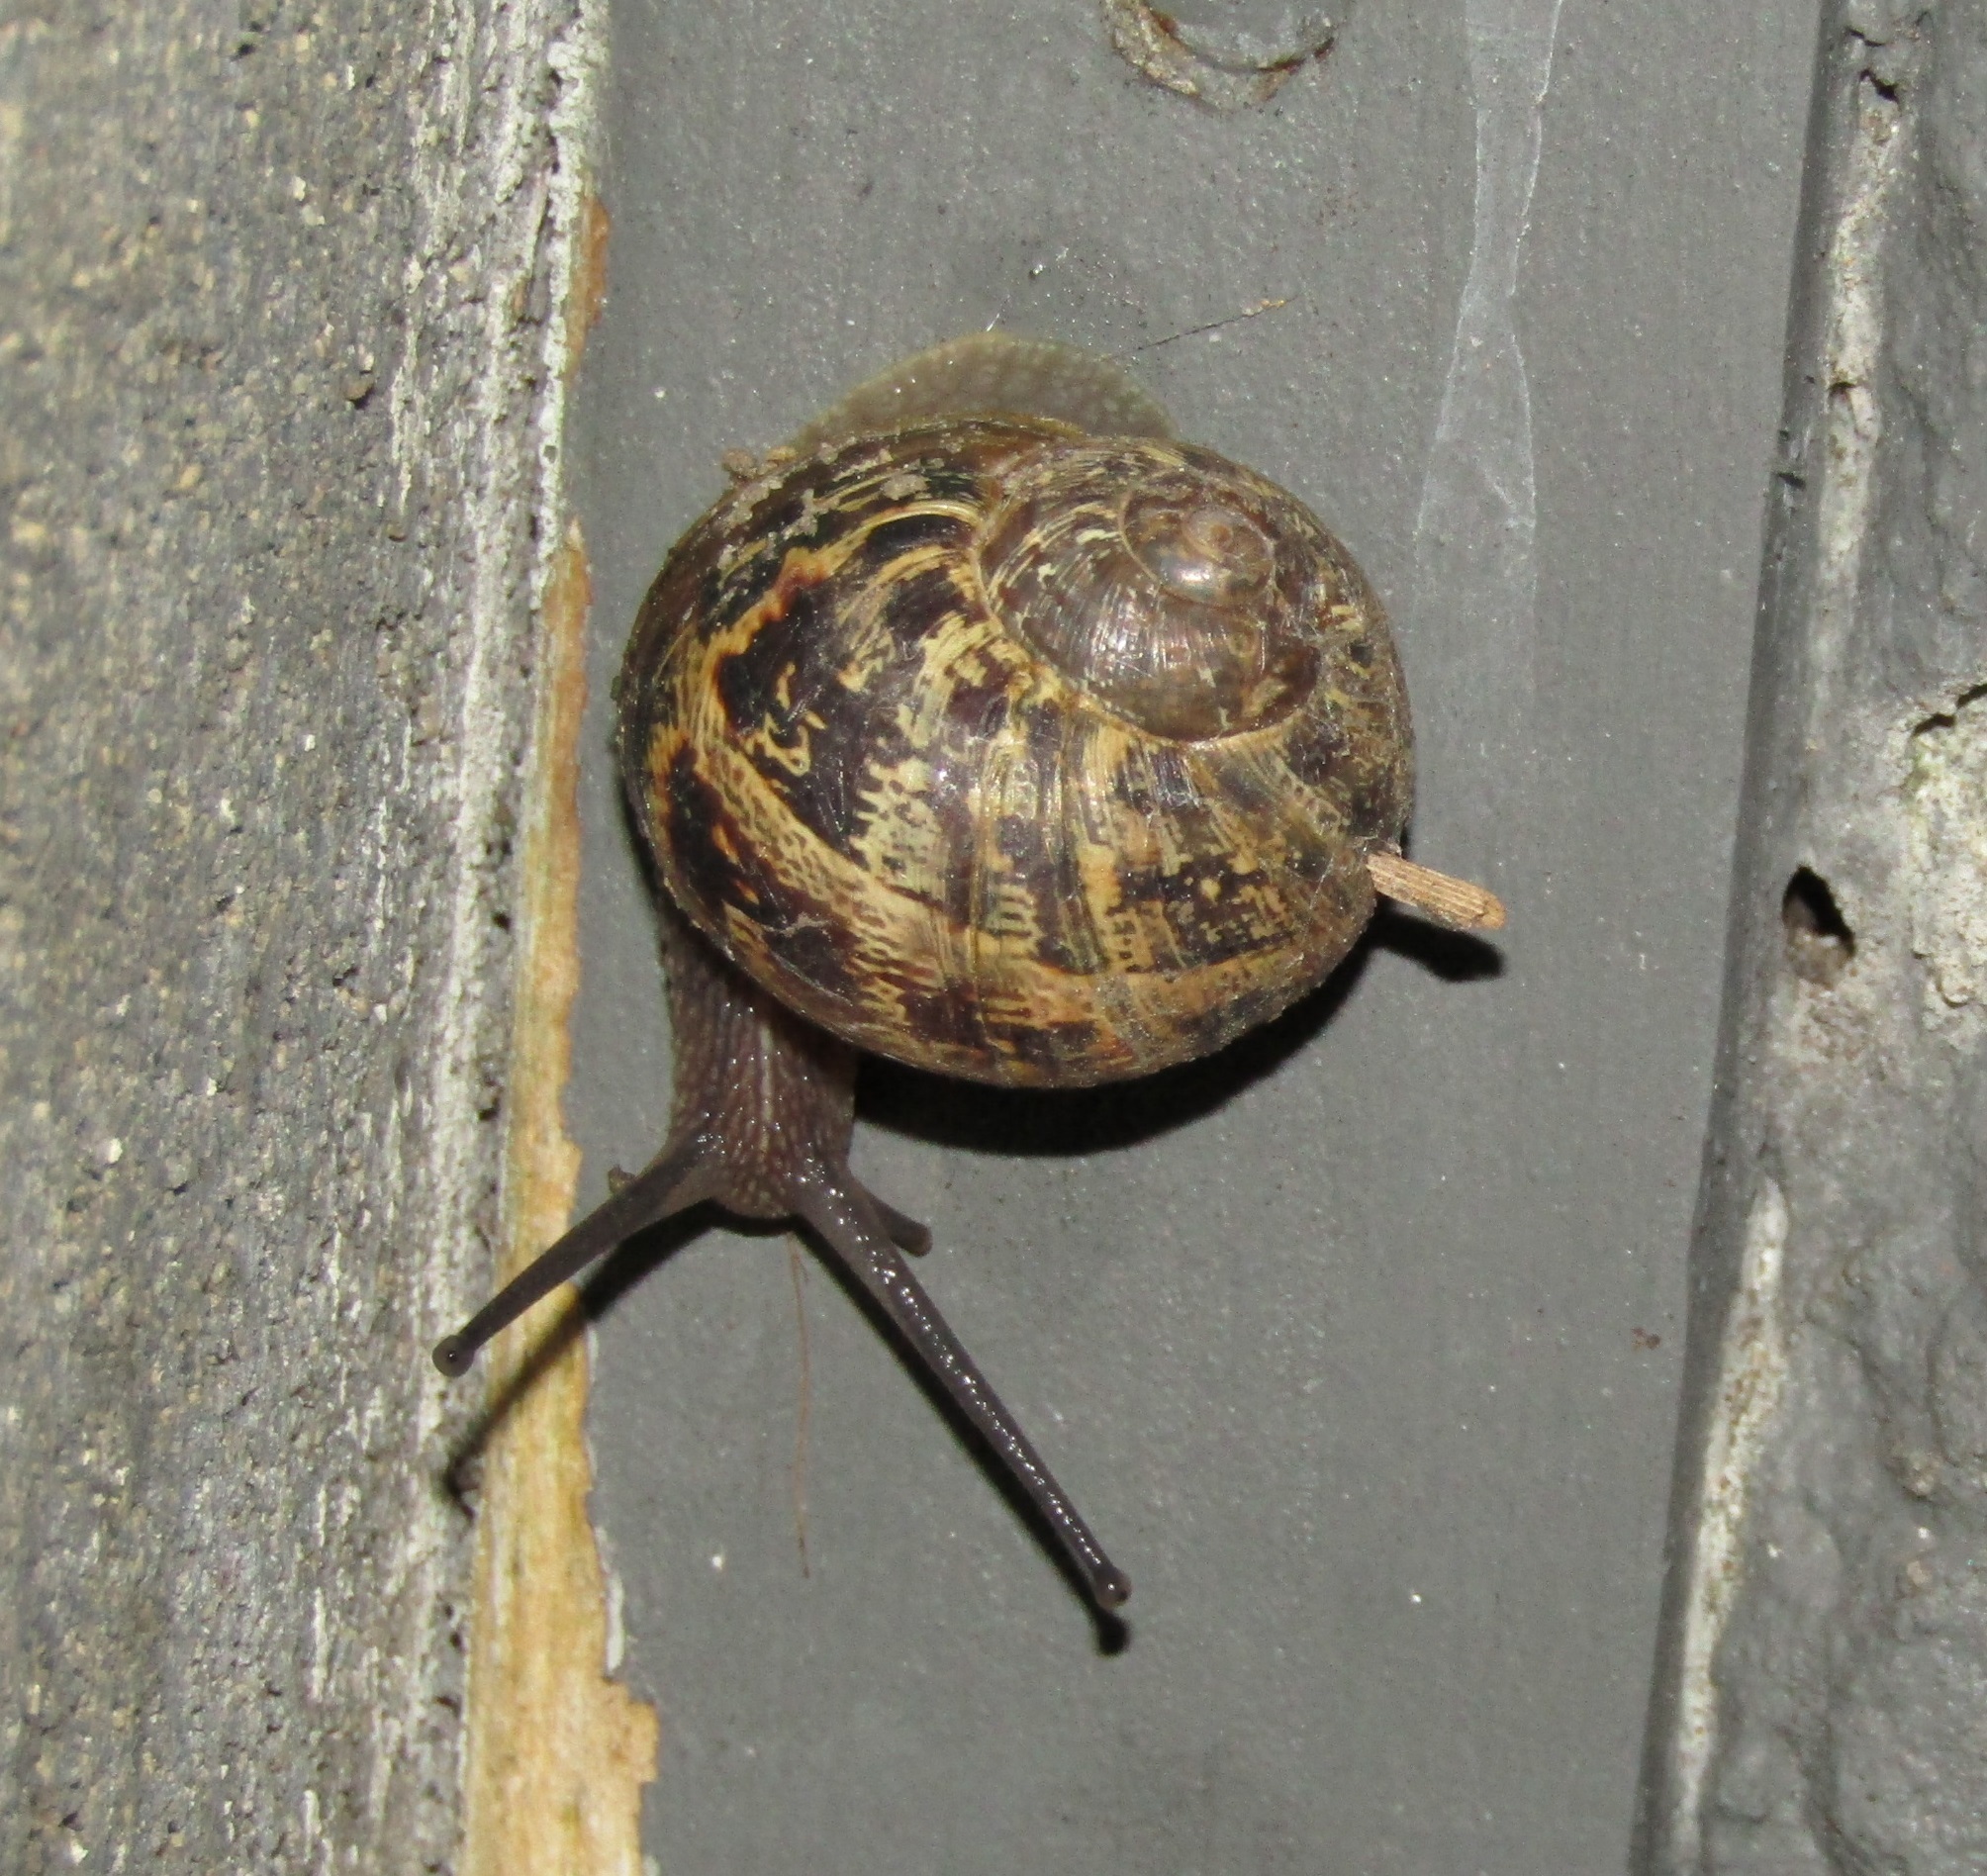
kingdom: Animalia
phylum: Mollusca
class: Gastropoda
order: Stylommatophora
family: Helicidae
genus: Cornu
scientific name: Cornu aspersum
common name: Brown garden snail
